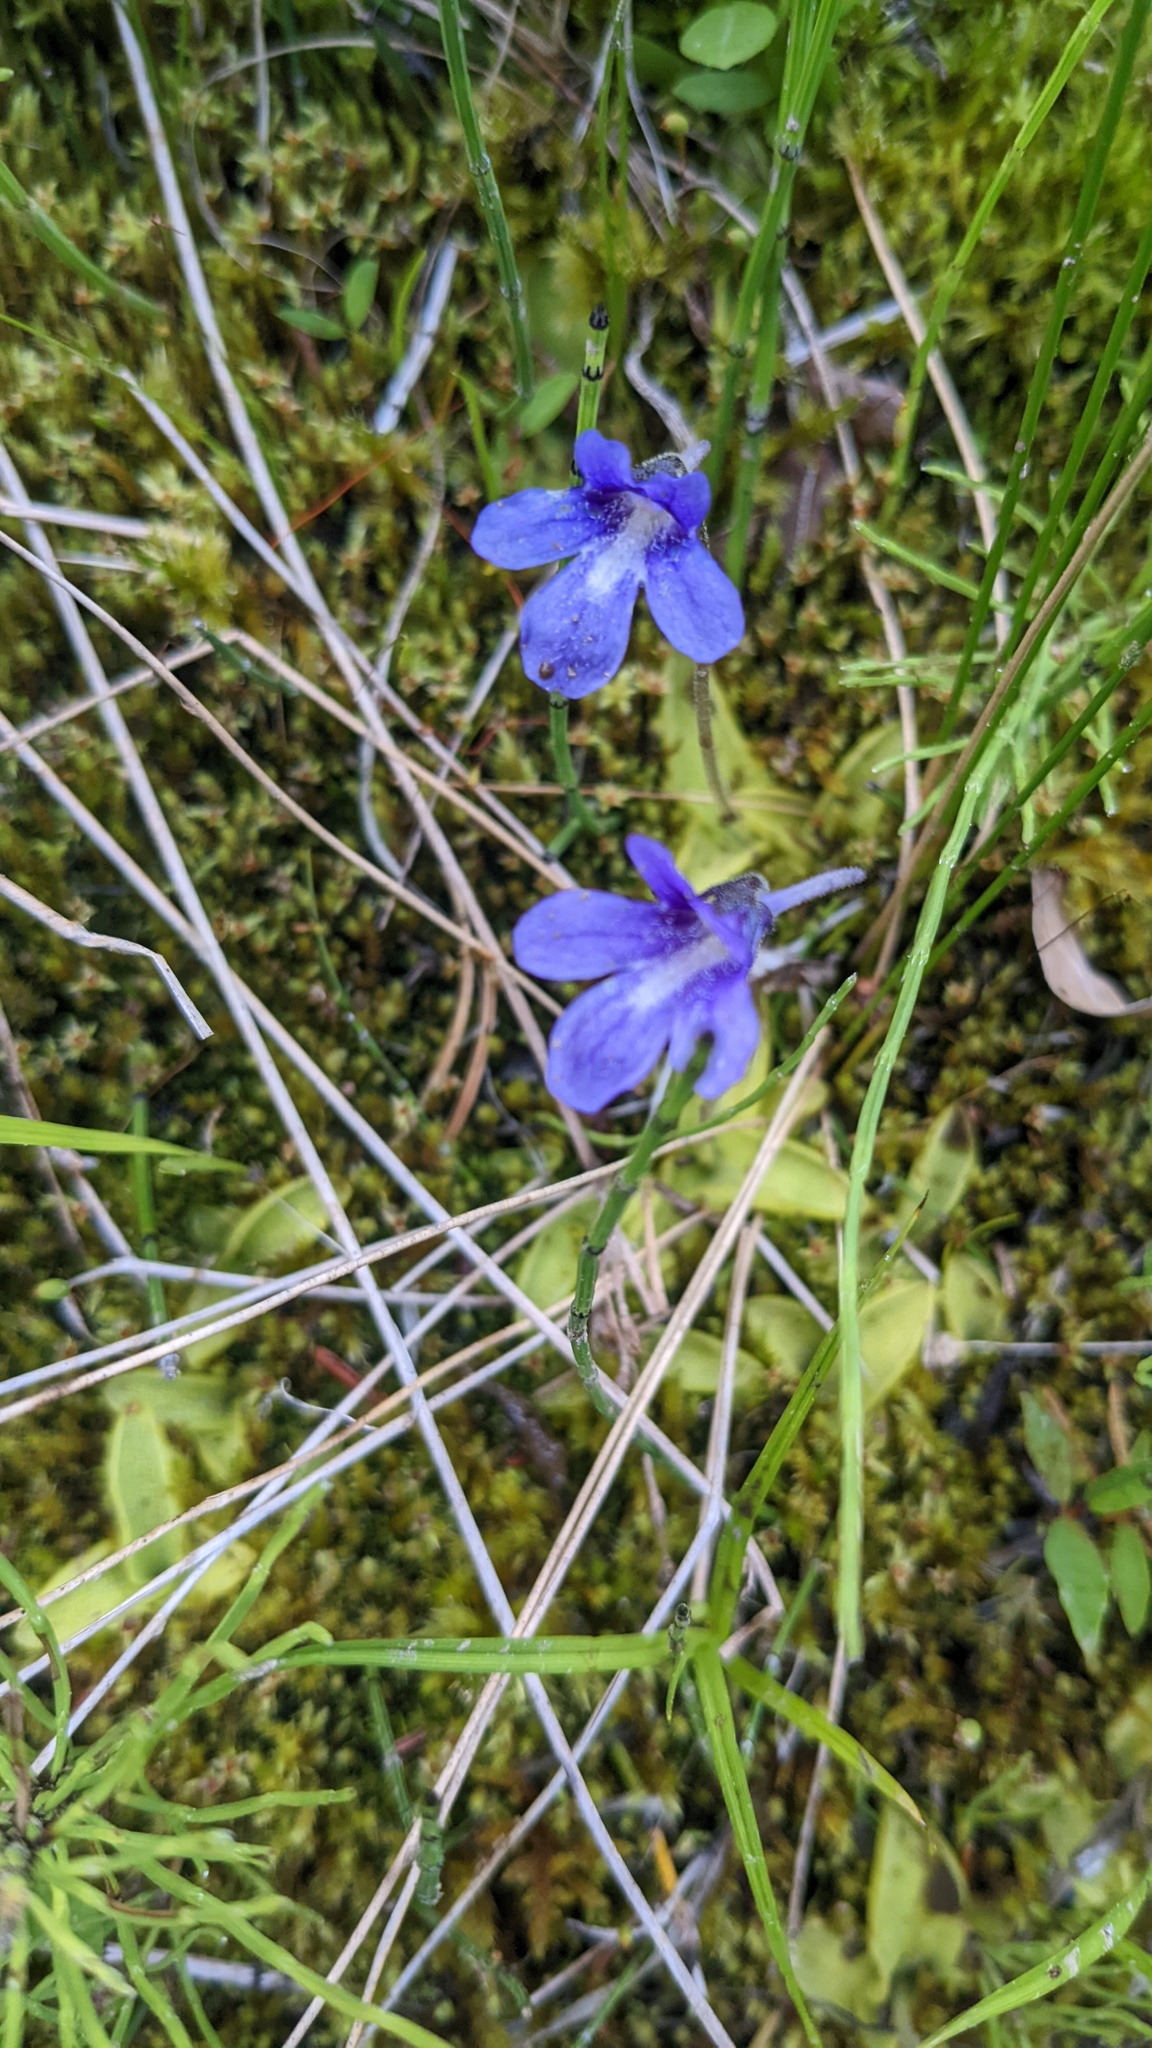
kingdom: Plantae
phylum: Tracheophyta
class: Magnoliopsida
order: Lamiales
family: Lentibulariaceae
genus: Pinguicula
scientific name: Pinguicula vulgaris
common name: Common butterwort
